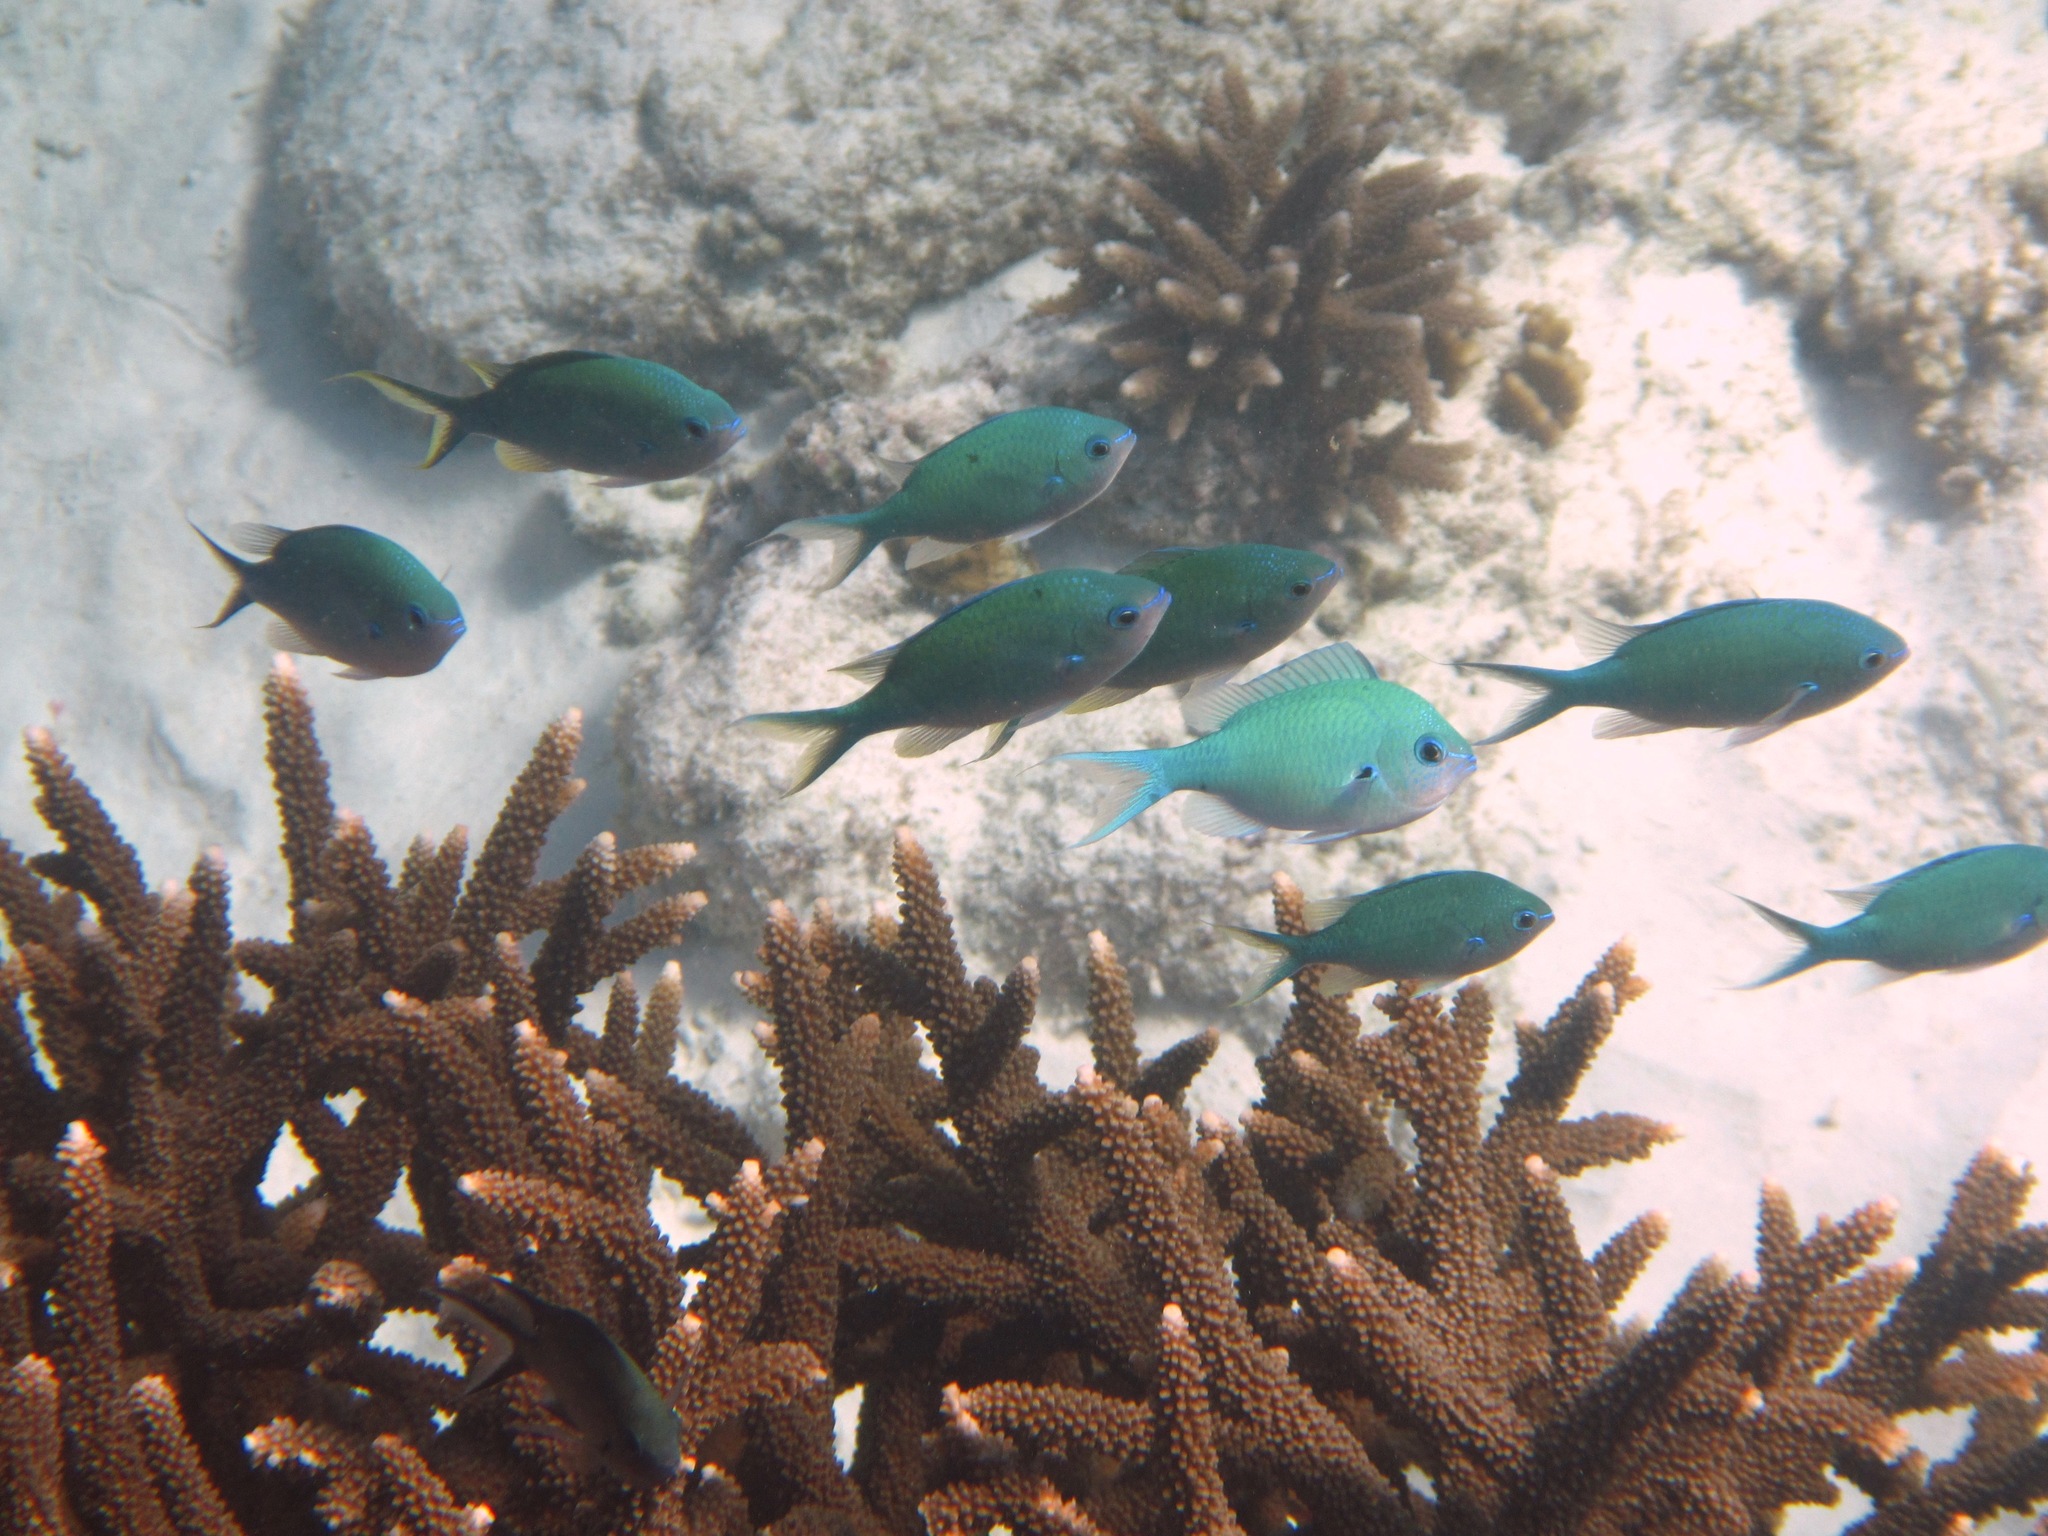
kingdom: Animalia
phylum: Chordata
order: Perciformes
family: Pomacentridae
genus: Chromis
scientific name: Chromis atripectoralis
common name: Black-axil chromis
